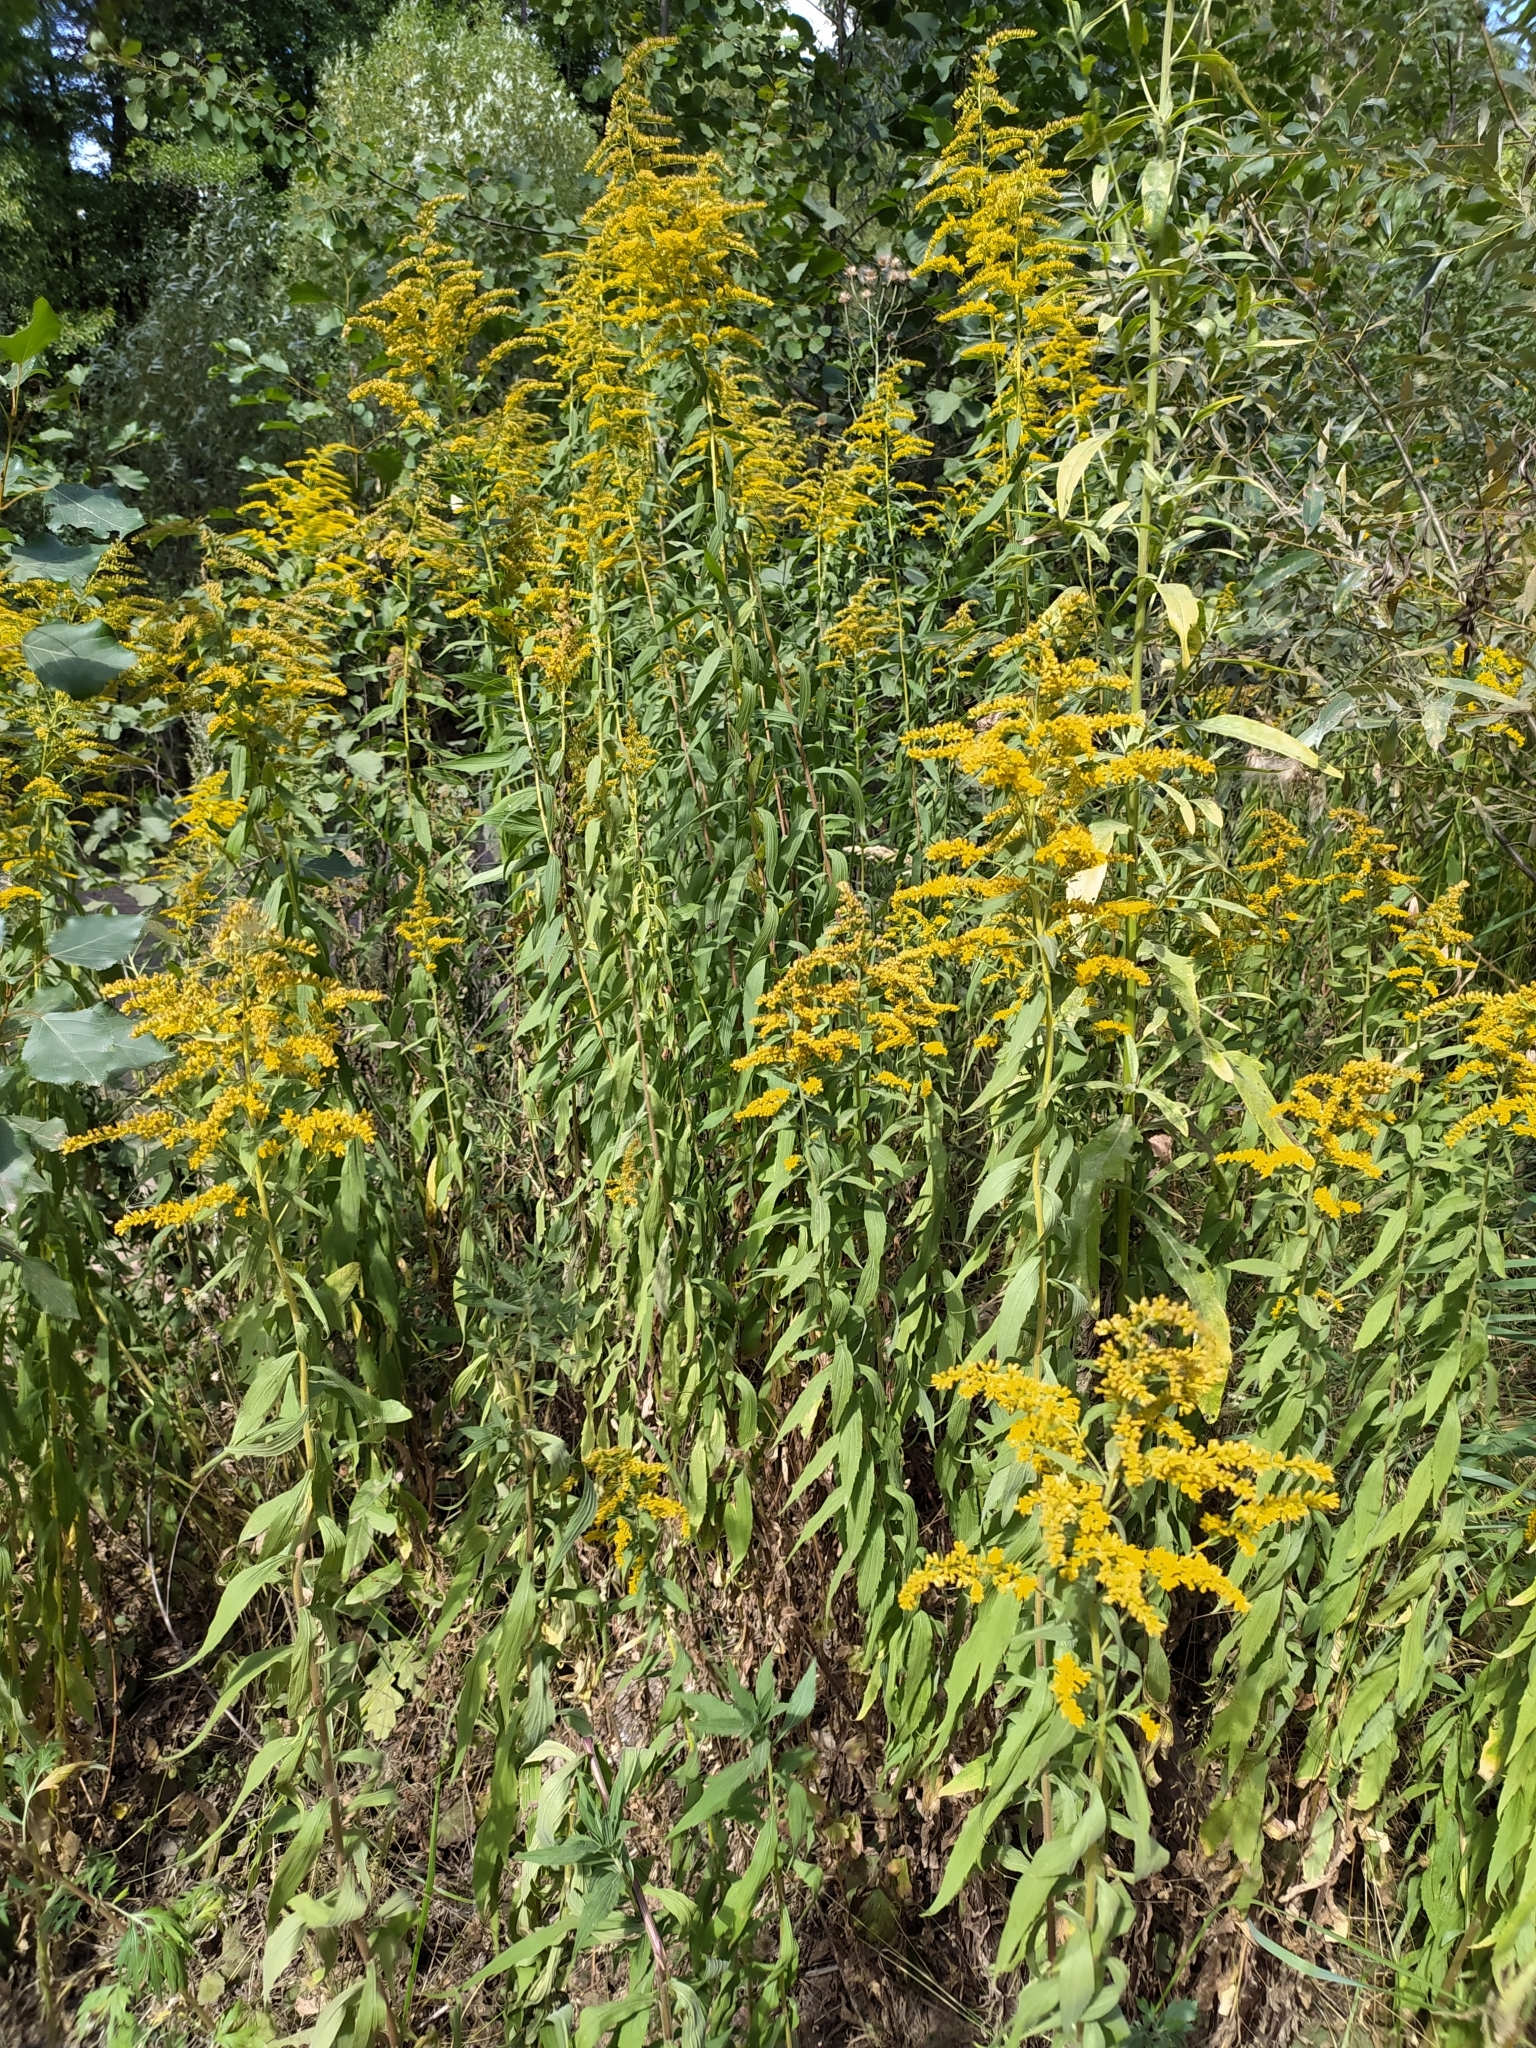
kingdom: Plantae
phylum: Tracheophyta
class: Magnoliopsida
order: Asterales
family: Asteraceae
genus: Solidago
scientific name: Solidago canadensis
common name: Canada goldenrod
